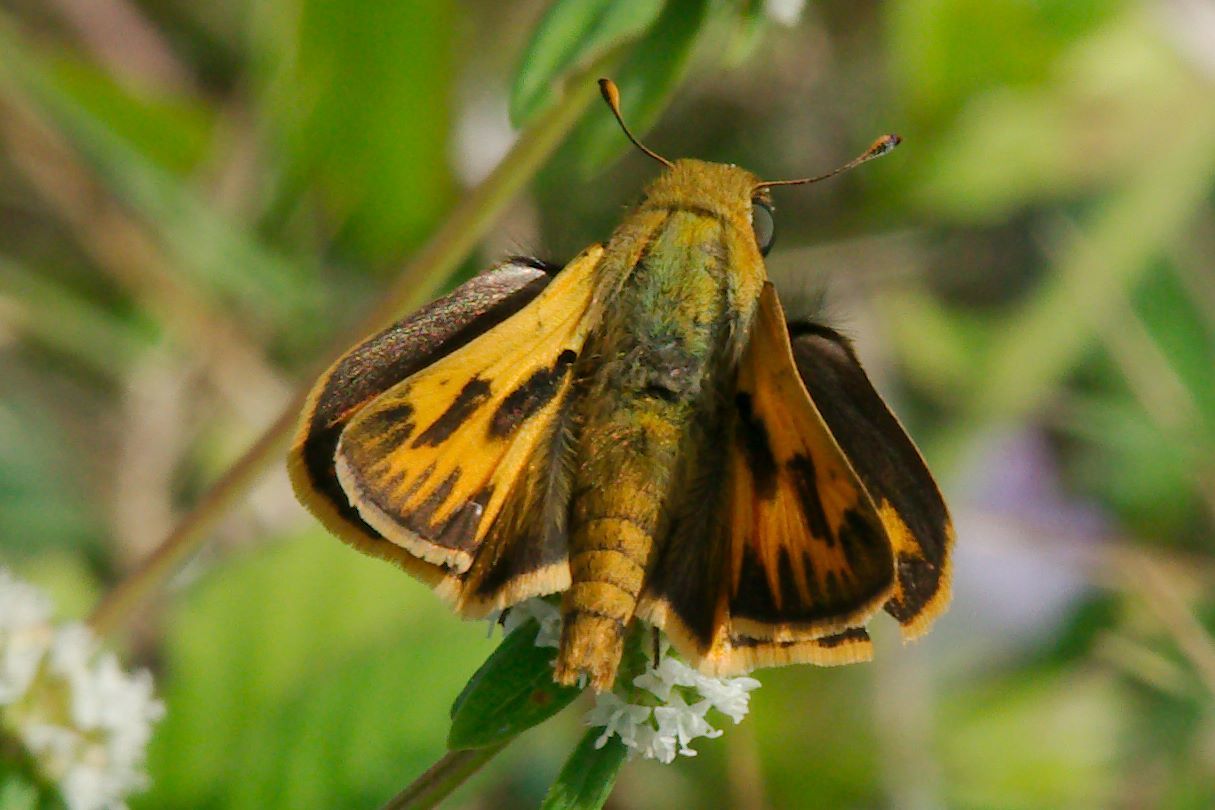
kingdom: Animalia
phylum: Arthropoda
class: Insecta
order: Lepidoptera
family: Hesperiidae
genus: Hylephila
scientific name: Hylephila phyleus
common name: Fiery skipper
